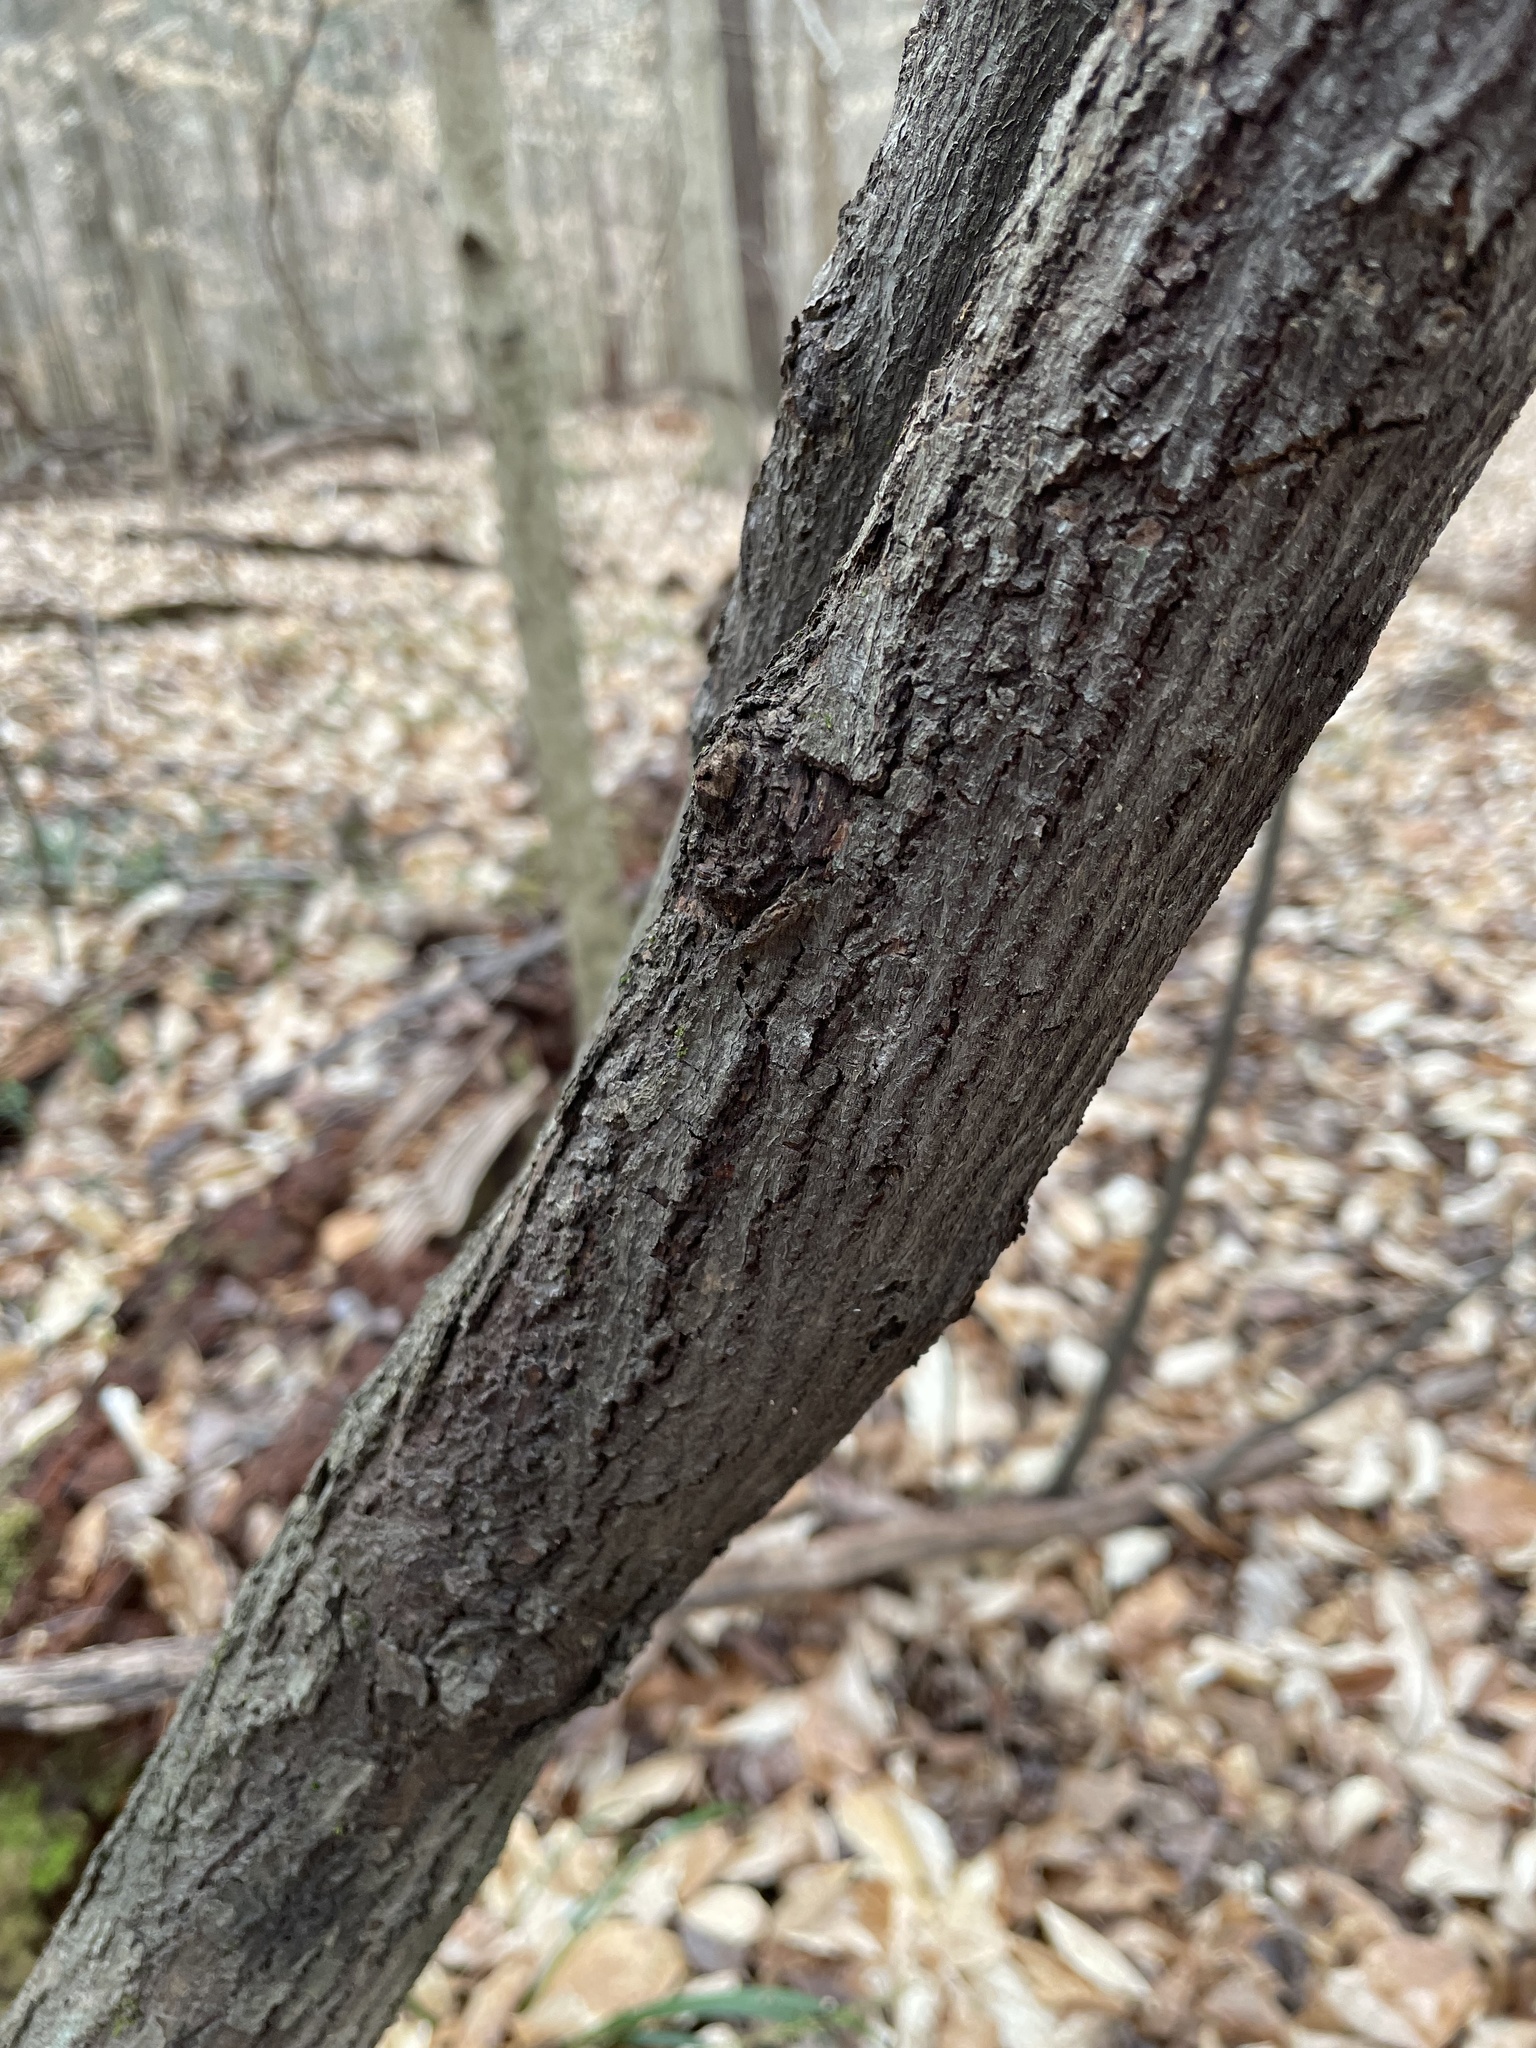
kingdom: Plantae
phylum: Tracheophyta
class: Magnoliopsida
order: Rosales
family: Rosaceae
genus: Amelanchier
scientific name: Amelanchier arborea
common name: Downy serviceberry
